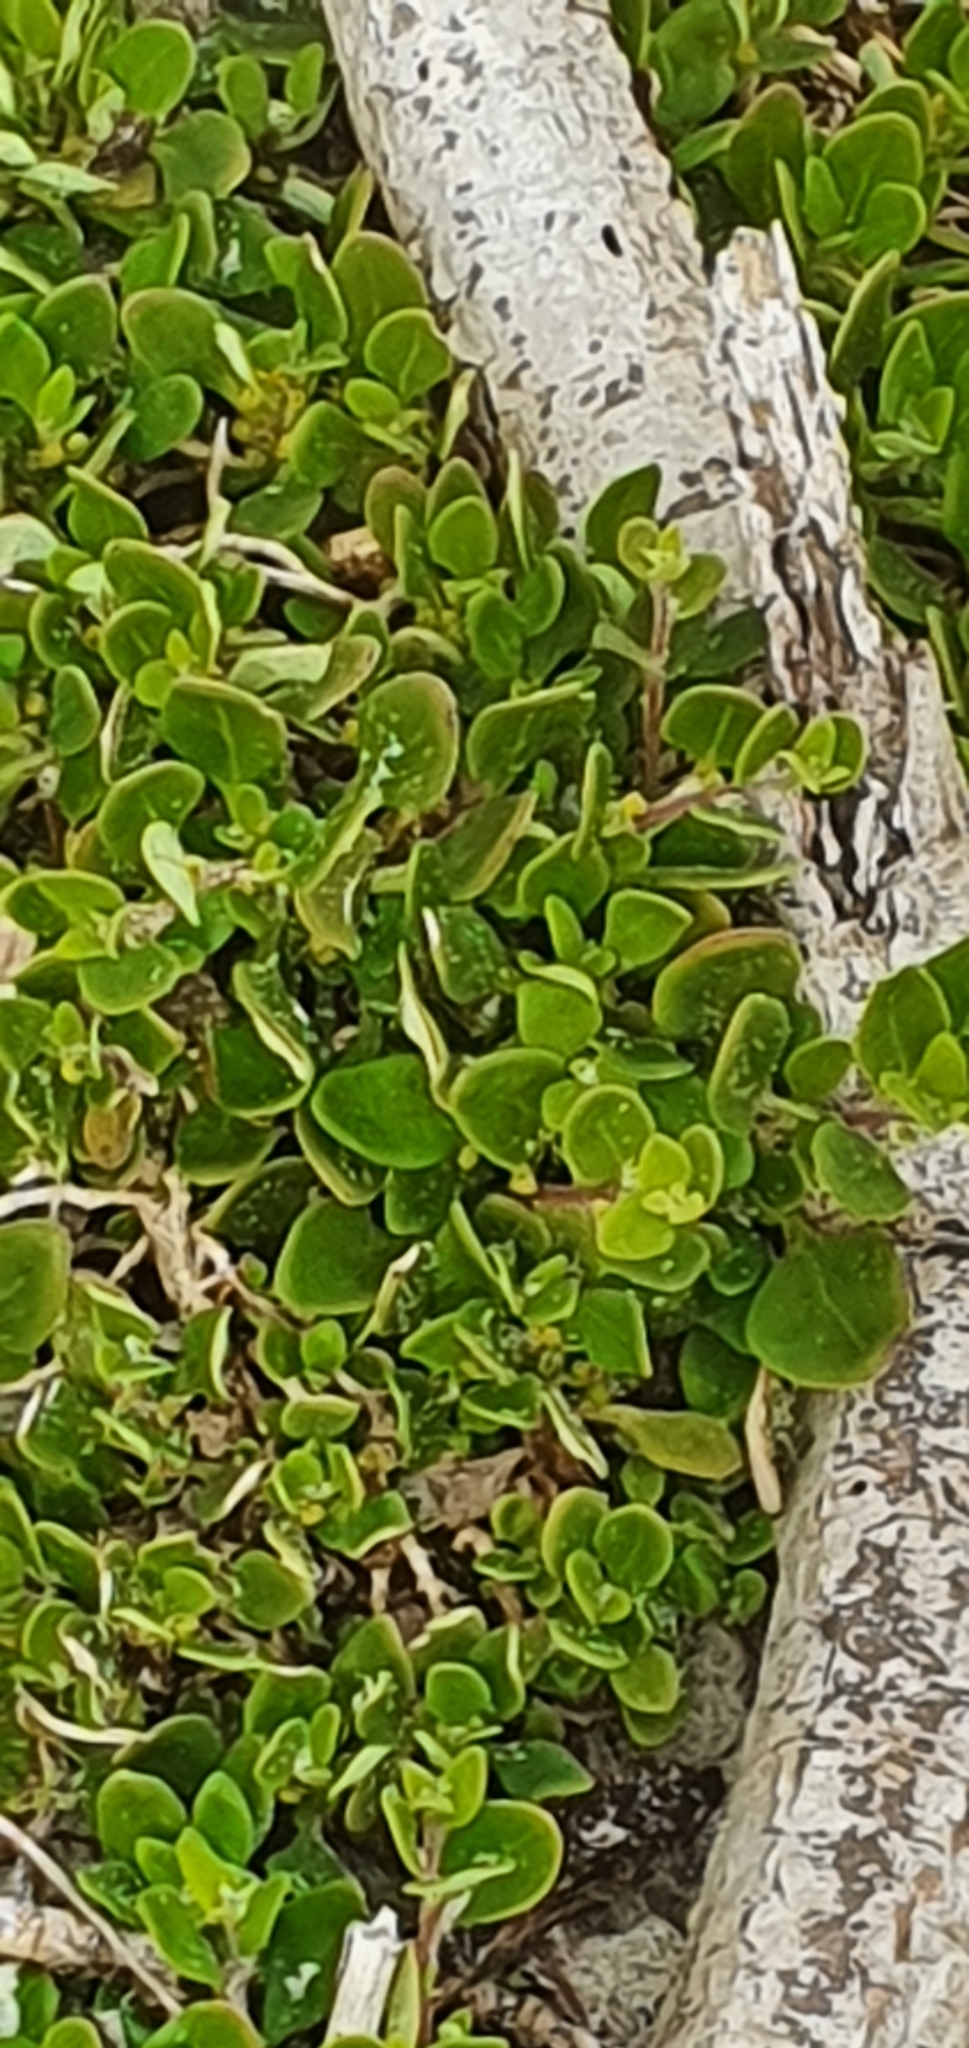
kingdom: Plantae
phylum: Tracheophyta
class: Magnoliopsida
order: Caryophyllales
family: Aizoaceae
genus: Tetragonia
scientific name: Tetragonia implexicoma
